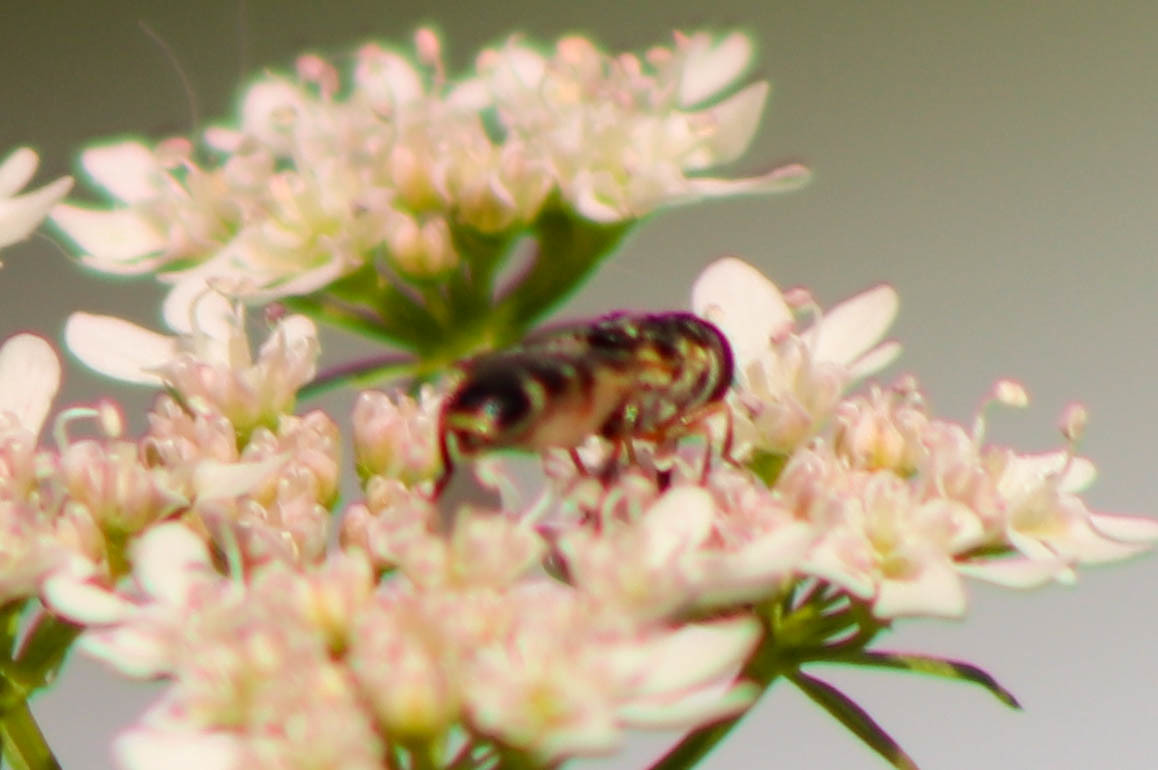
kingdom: Animalia
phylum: Arthropoda
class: Insecta
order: Diptera
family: Syrphidae
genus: Syritta
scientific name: Syritta pipiens
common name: Hover fly
